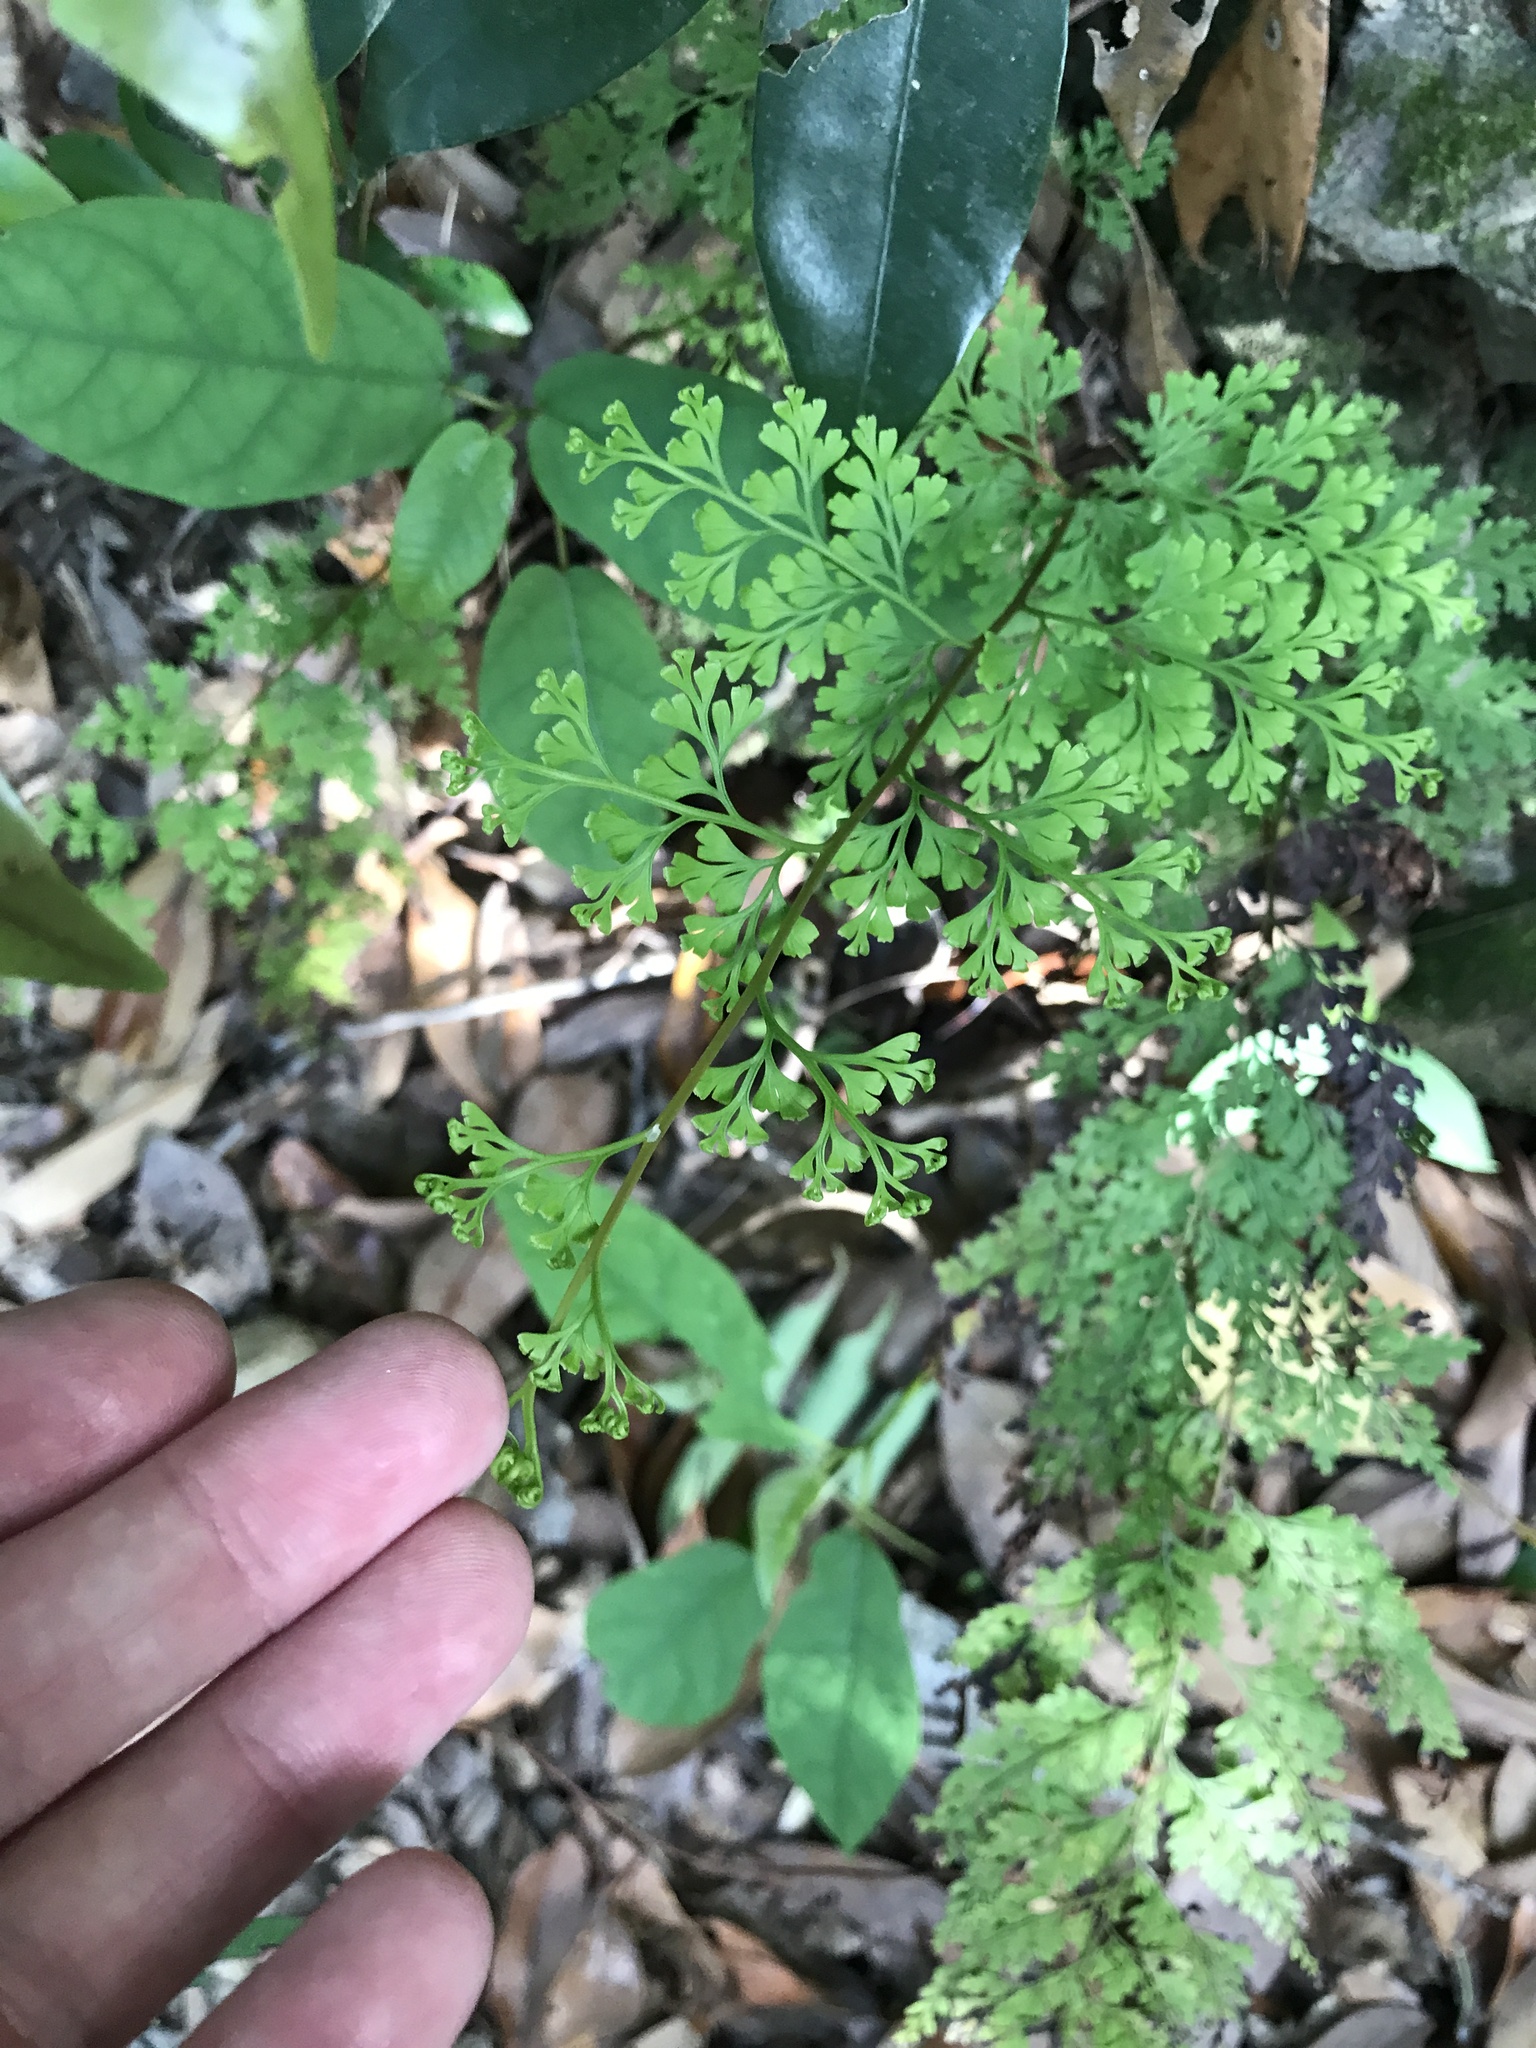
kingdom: Plantae
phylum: Tracheophyta
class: Polypodiopsida
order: Polypodiales
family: Lindsaeaceae
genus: Odontosoria
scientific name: Odontosoria chinensis
